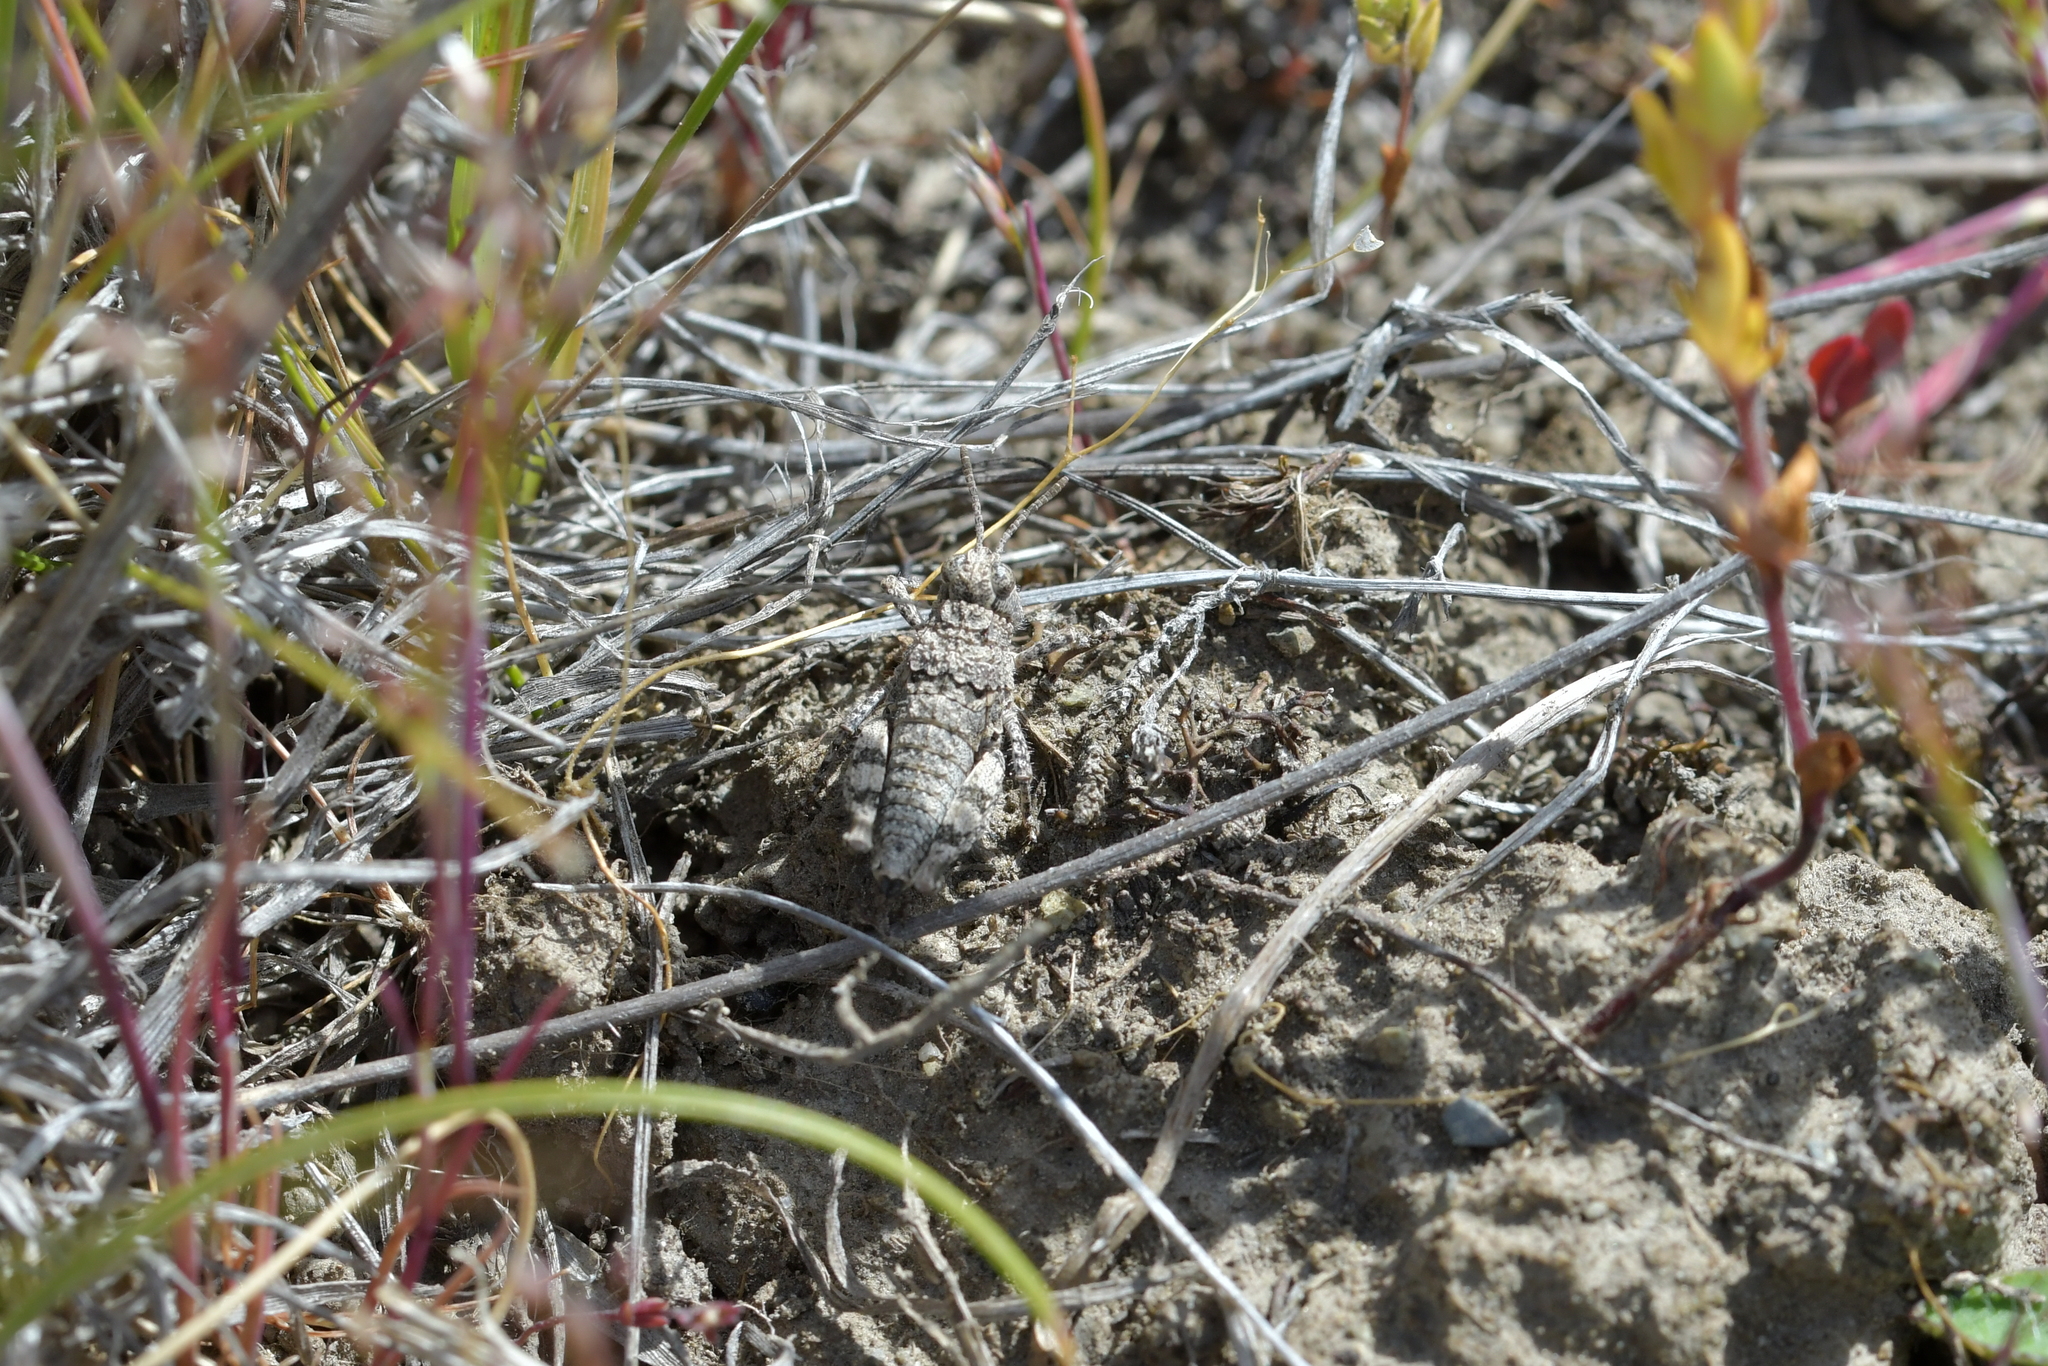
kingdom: Animalia
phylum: Arthropoda
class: Insecta
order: Orthoptera
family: Acrididae
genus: Sigaus
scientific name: Sigaus minutus
